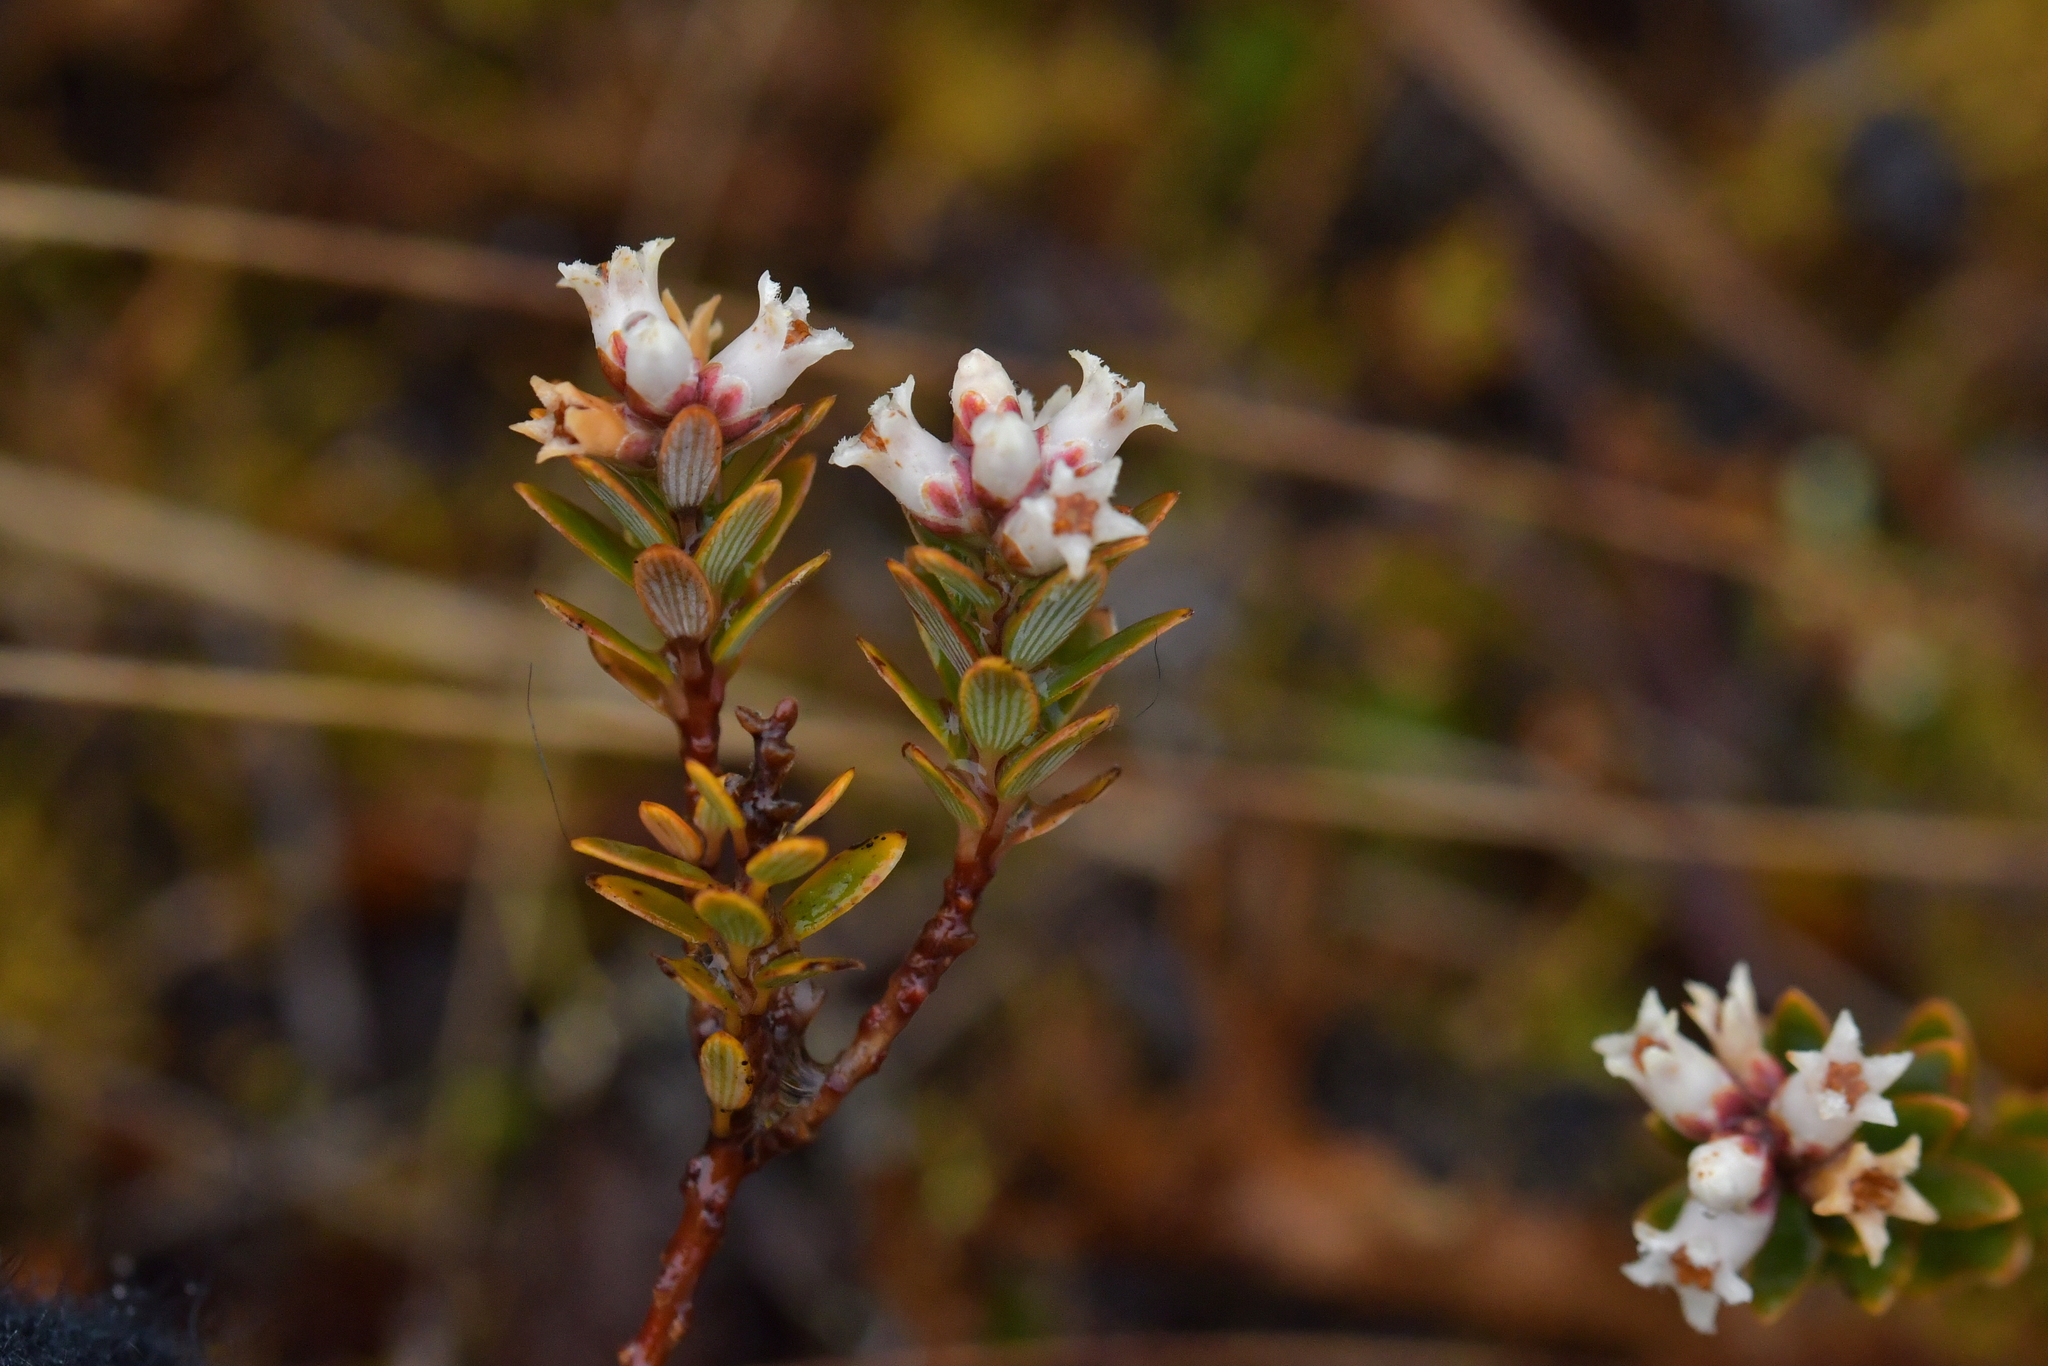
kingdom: Plantae
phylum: Tracheophyta
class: Magnoliopsida
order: Ericales
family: Ericaceae
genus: Acrothamnus
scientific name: Acrothamnus colensoi
